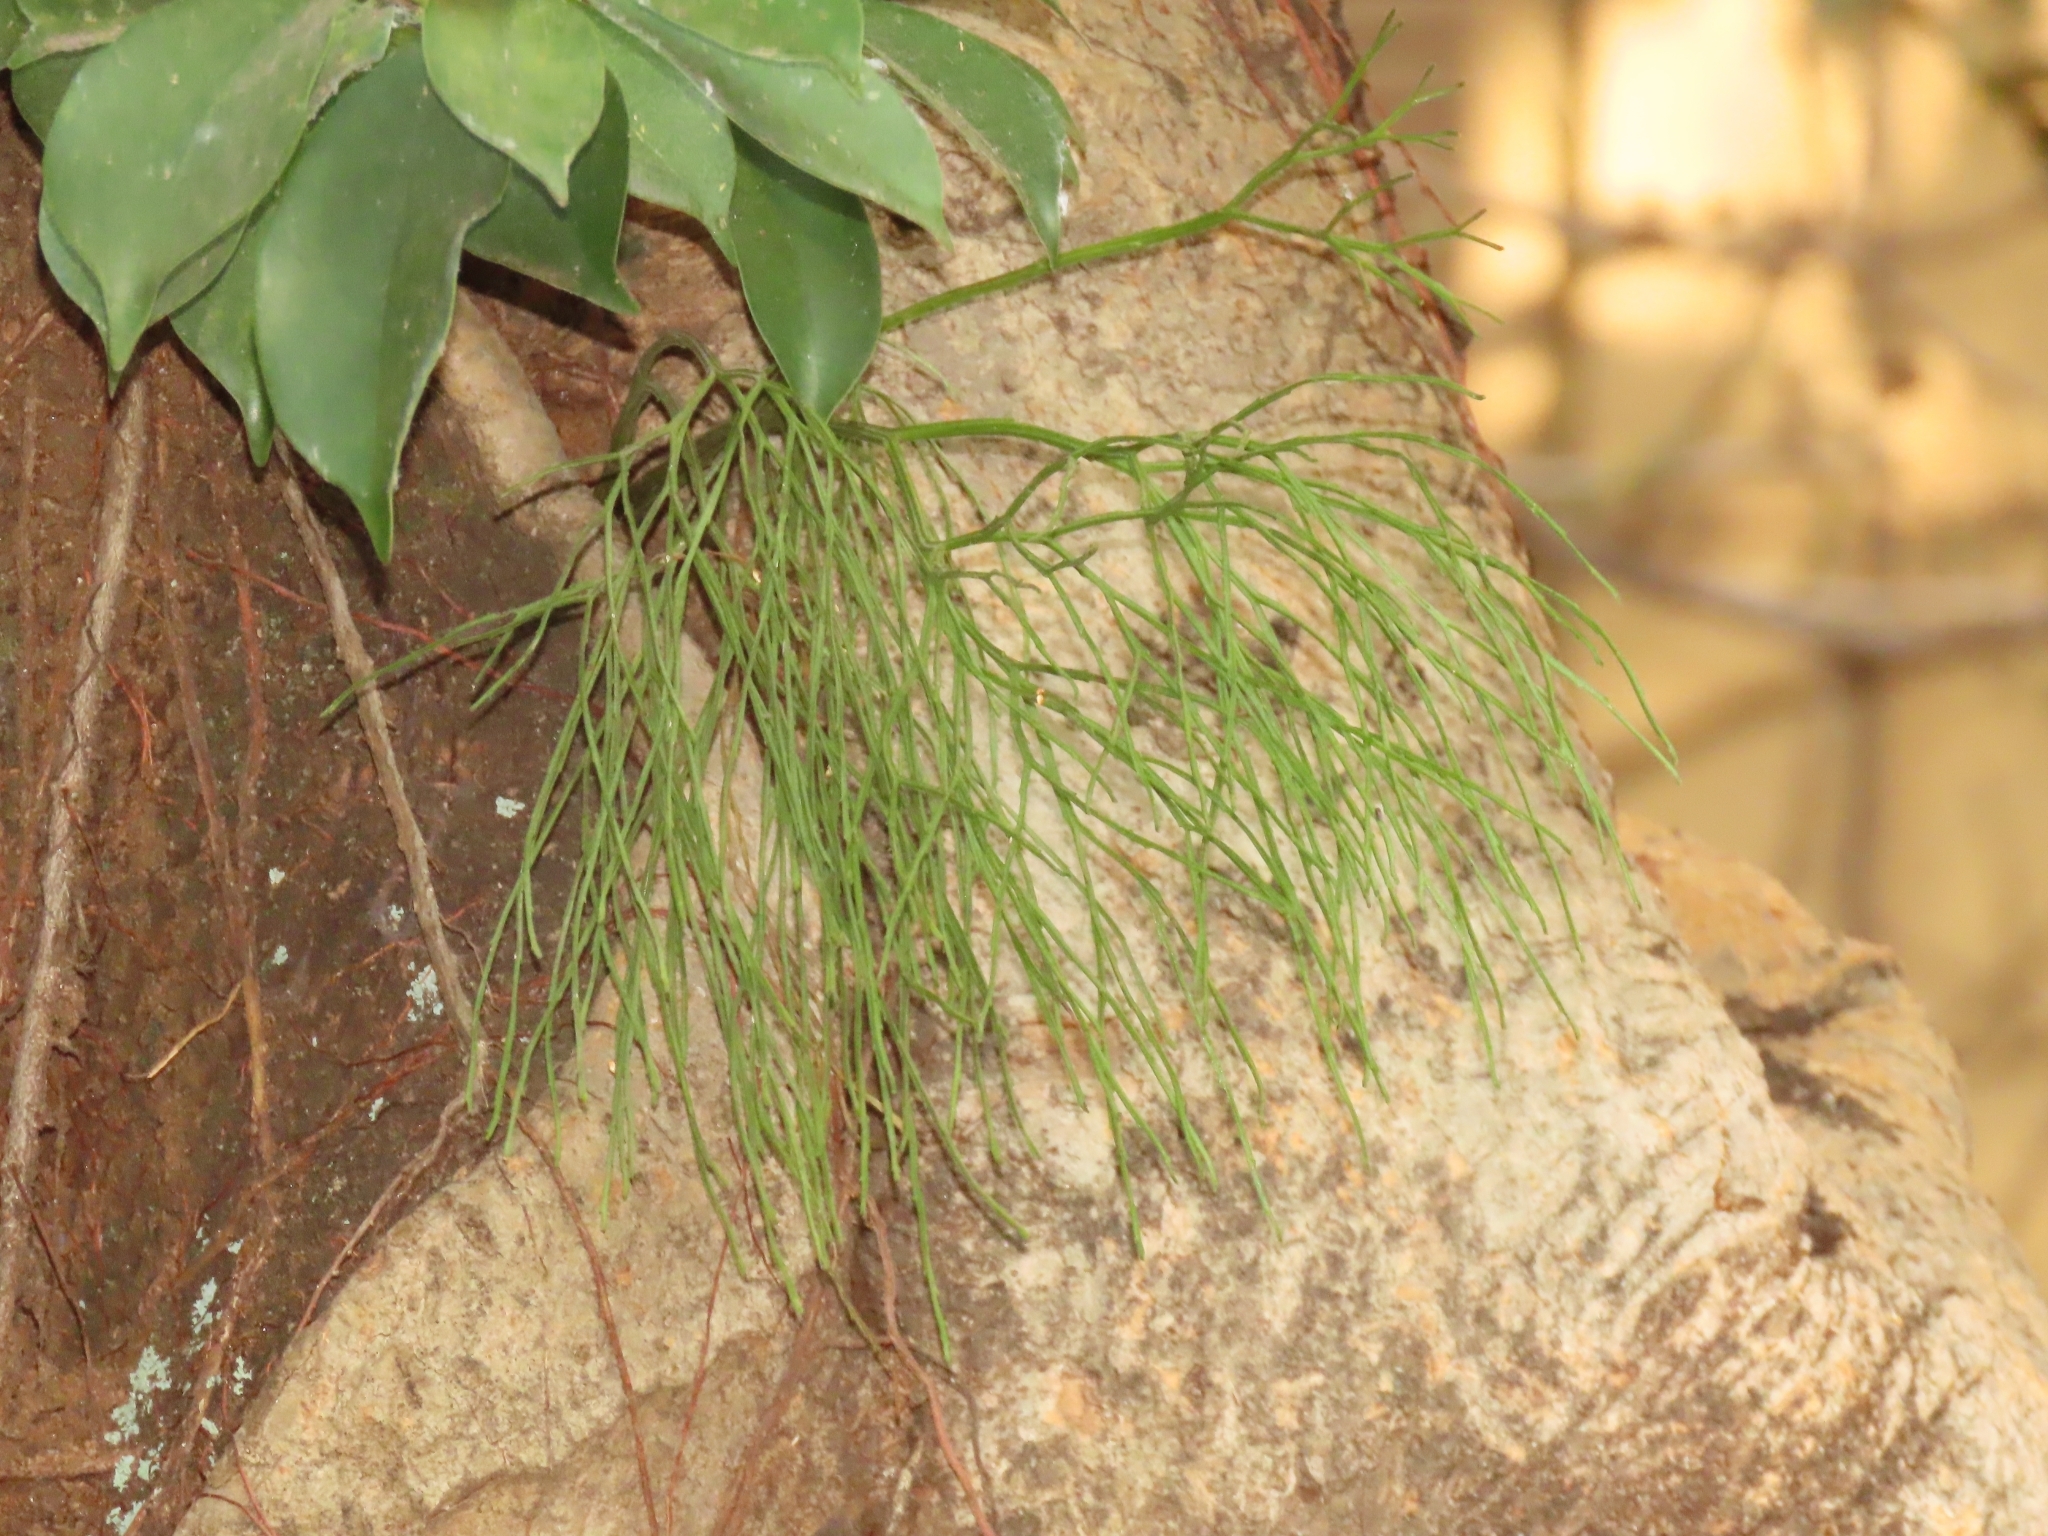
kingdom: Plantae
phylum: Tracheophyta
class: Polypodiopsida
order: Psilotales
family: Psilotaceae
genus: Psilotum
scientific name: Psilotum nudum
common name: Skeleton fork fern
